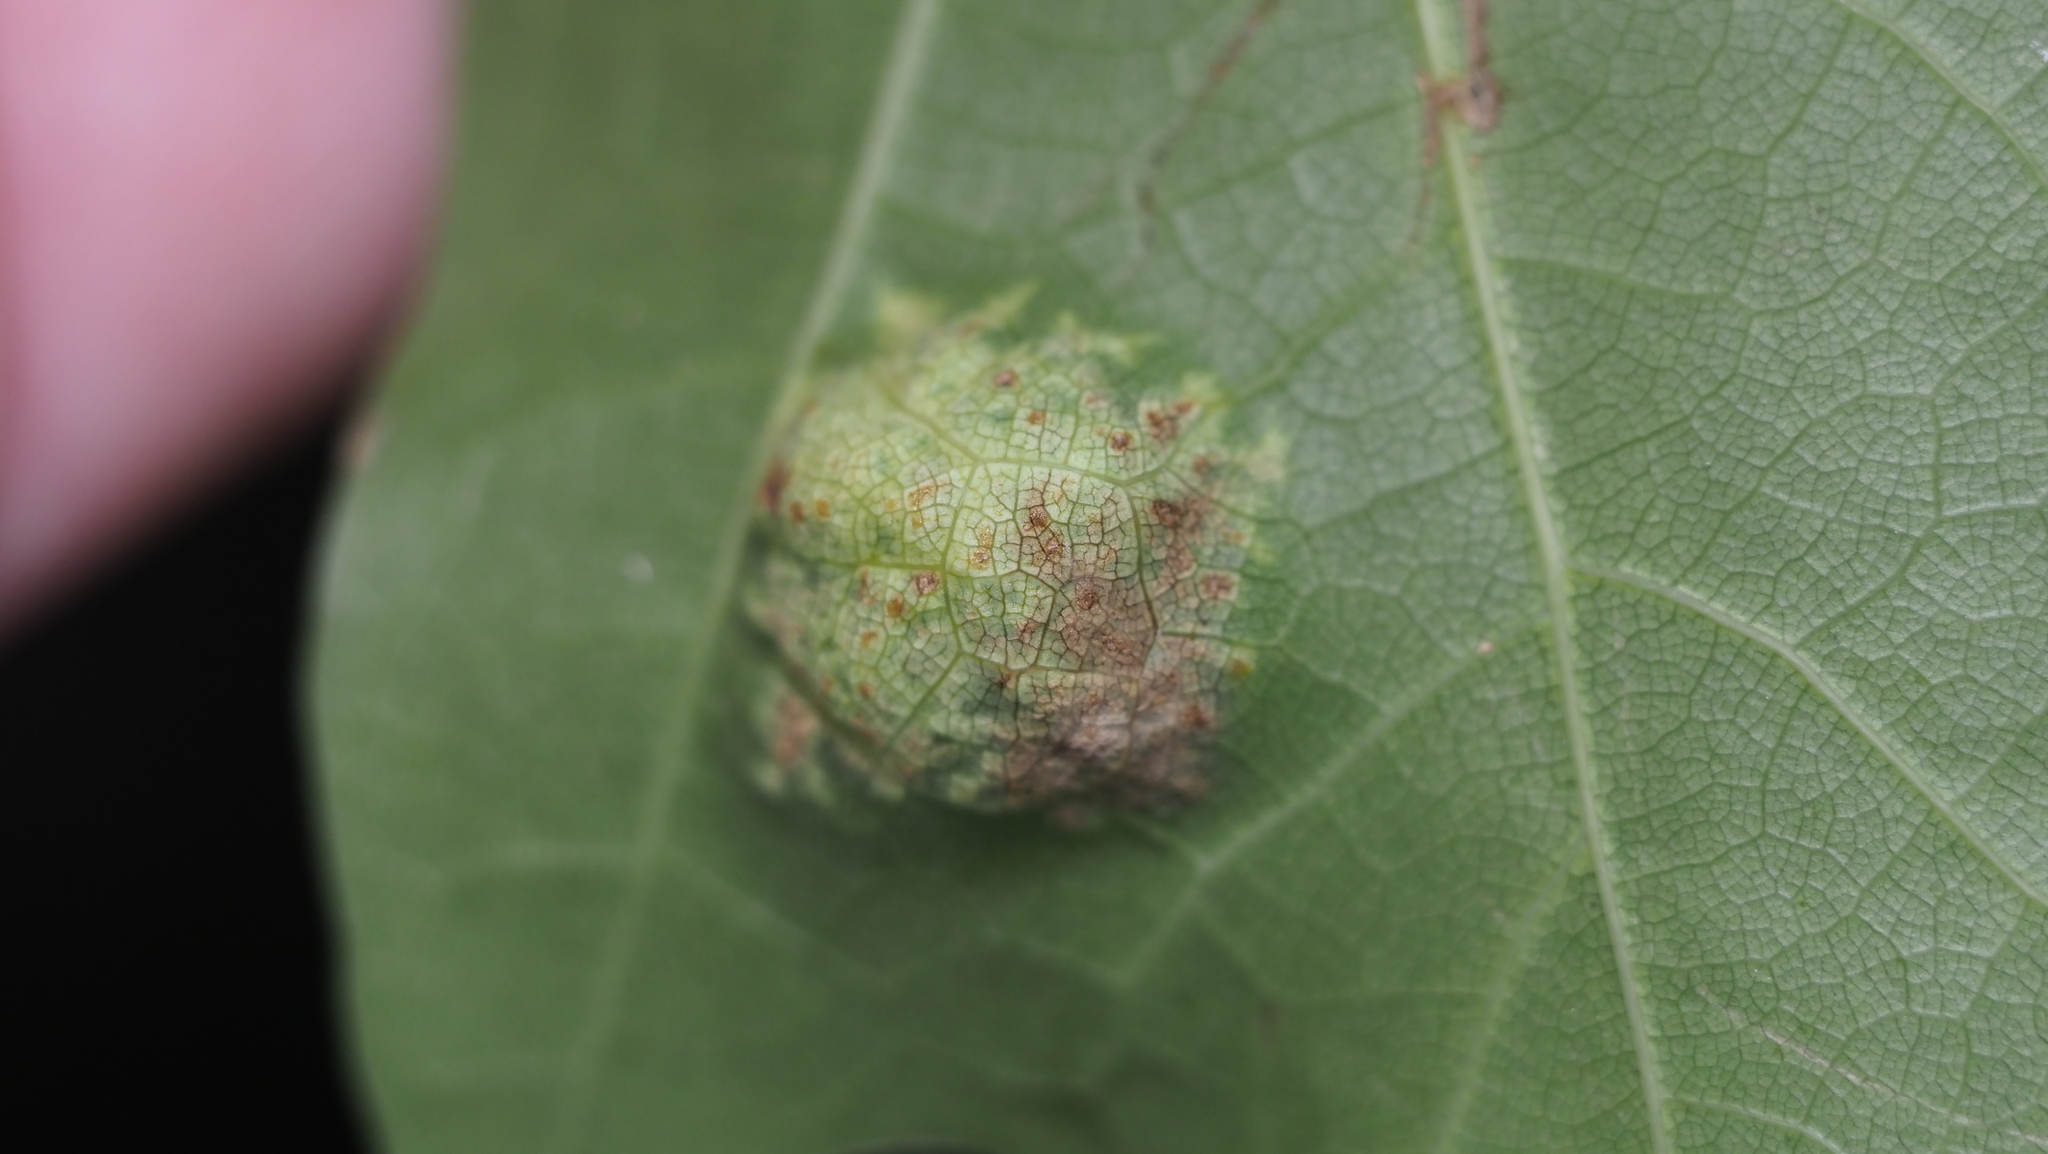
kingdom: Fungi
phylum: Ascomycota
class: Taphrinomycetes
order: Taphrinales
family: Taphrinaceae
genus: Taphrina
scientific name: Taphrina caerulescens
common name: Oak leaf blister
